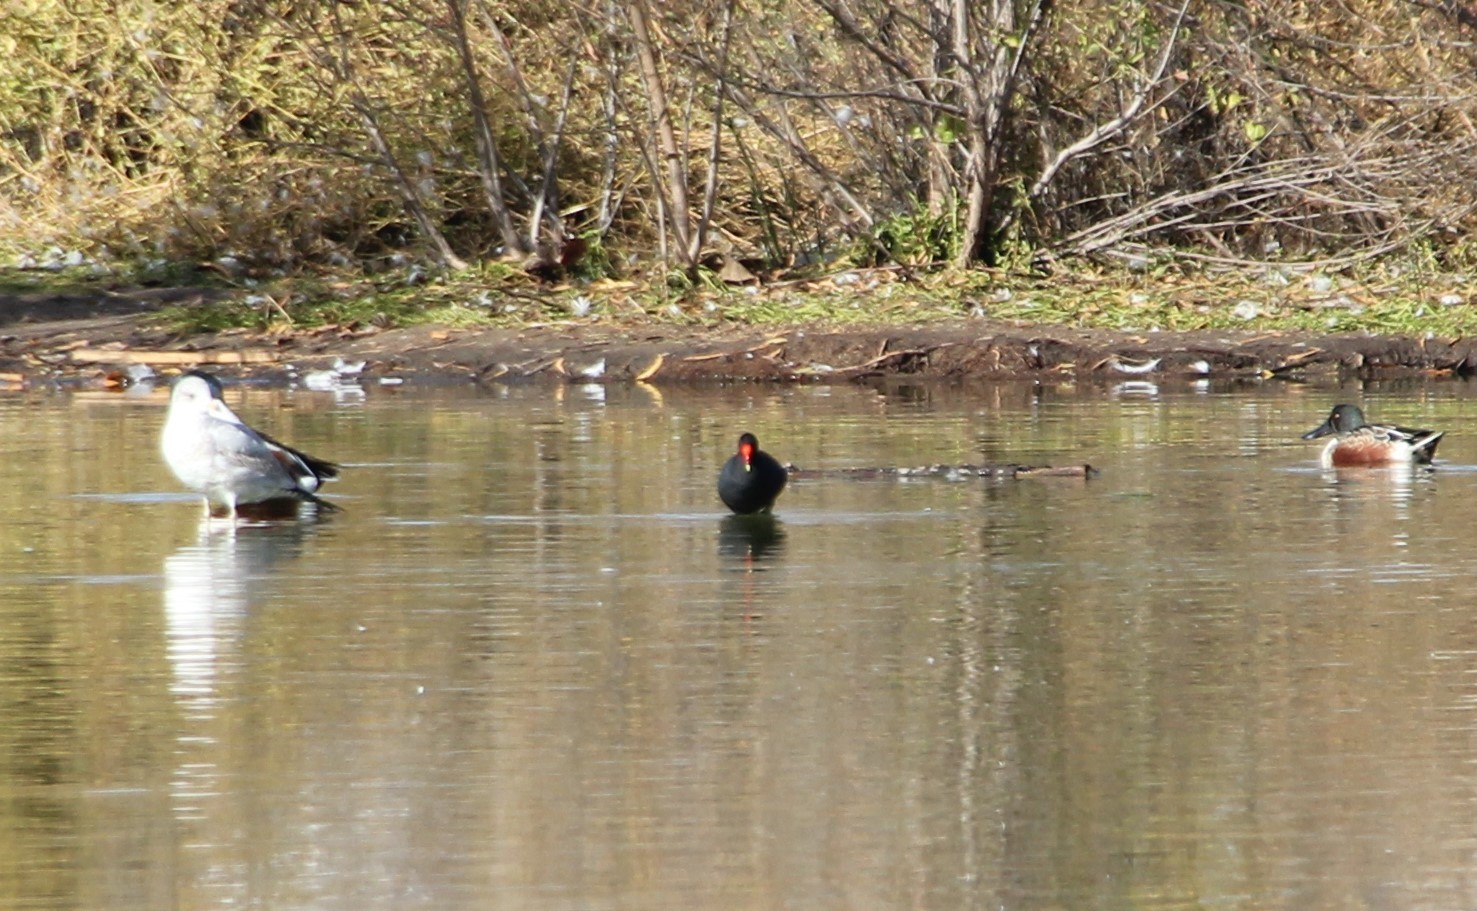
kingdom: Animalia
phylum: Chordata
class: Aves
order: Gruiformes
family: Rallidae
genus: Gallinula
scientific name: Gallinula chloropus
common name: Common moorhen
